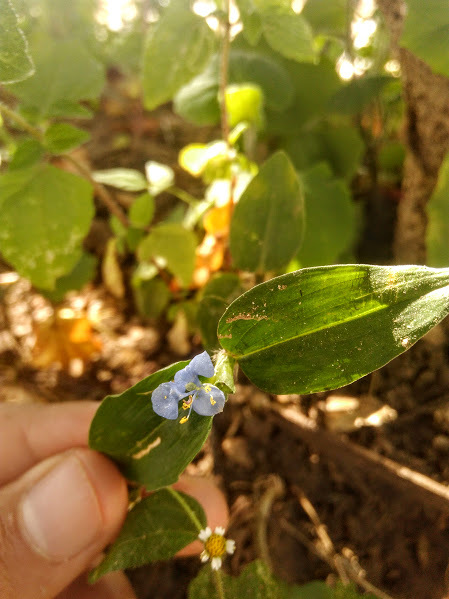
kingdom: Plantae
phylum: Tracheophyta
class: Liliopsida
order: Commelinales
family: Commelinaceae
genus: Commelina
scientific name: Commelina diffusa
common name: Climbing dayflower
